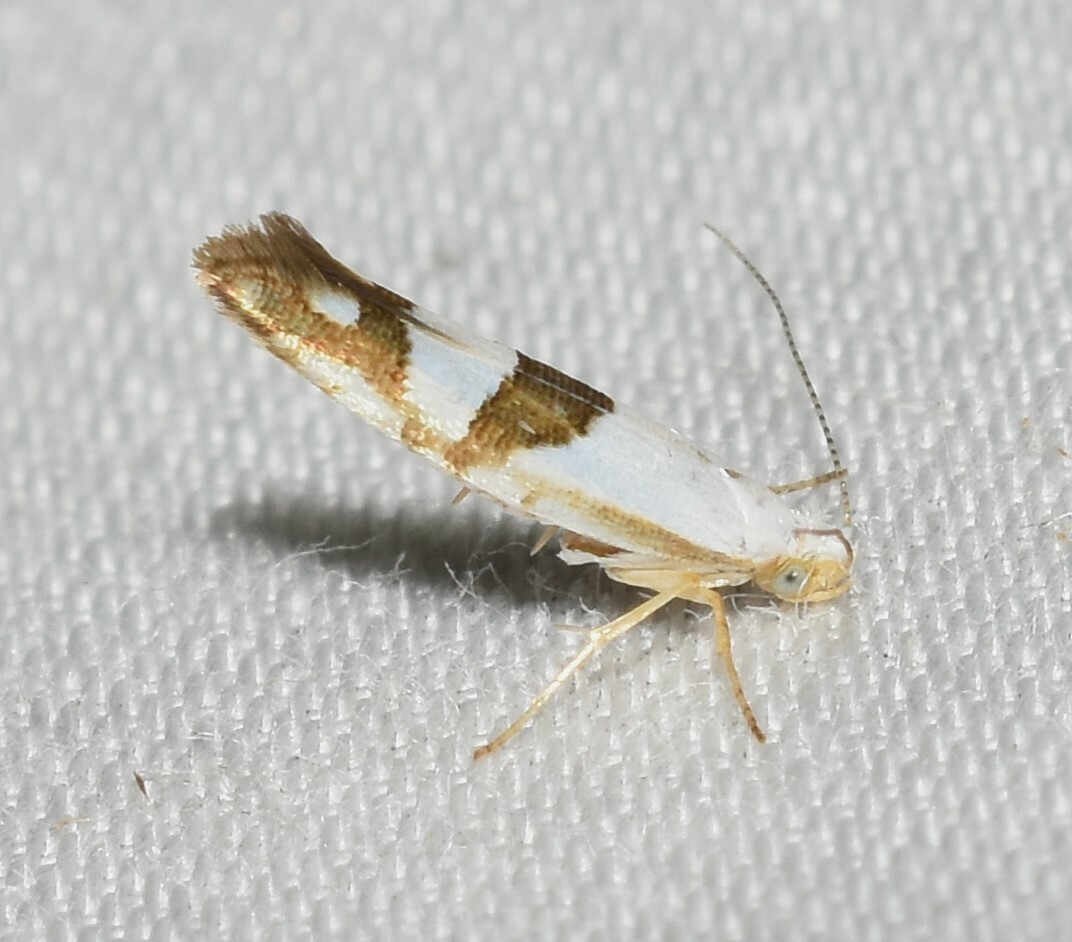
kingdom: Animalia
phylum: Arthropoda
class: Insecta
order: Lepidoptera
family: Argyresthiidae
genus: Argyresthia
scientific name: Argyresthia oreasella
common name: Cherry shoot borer moth
